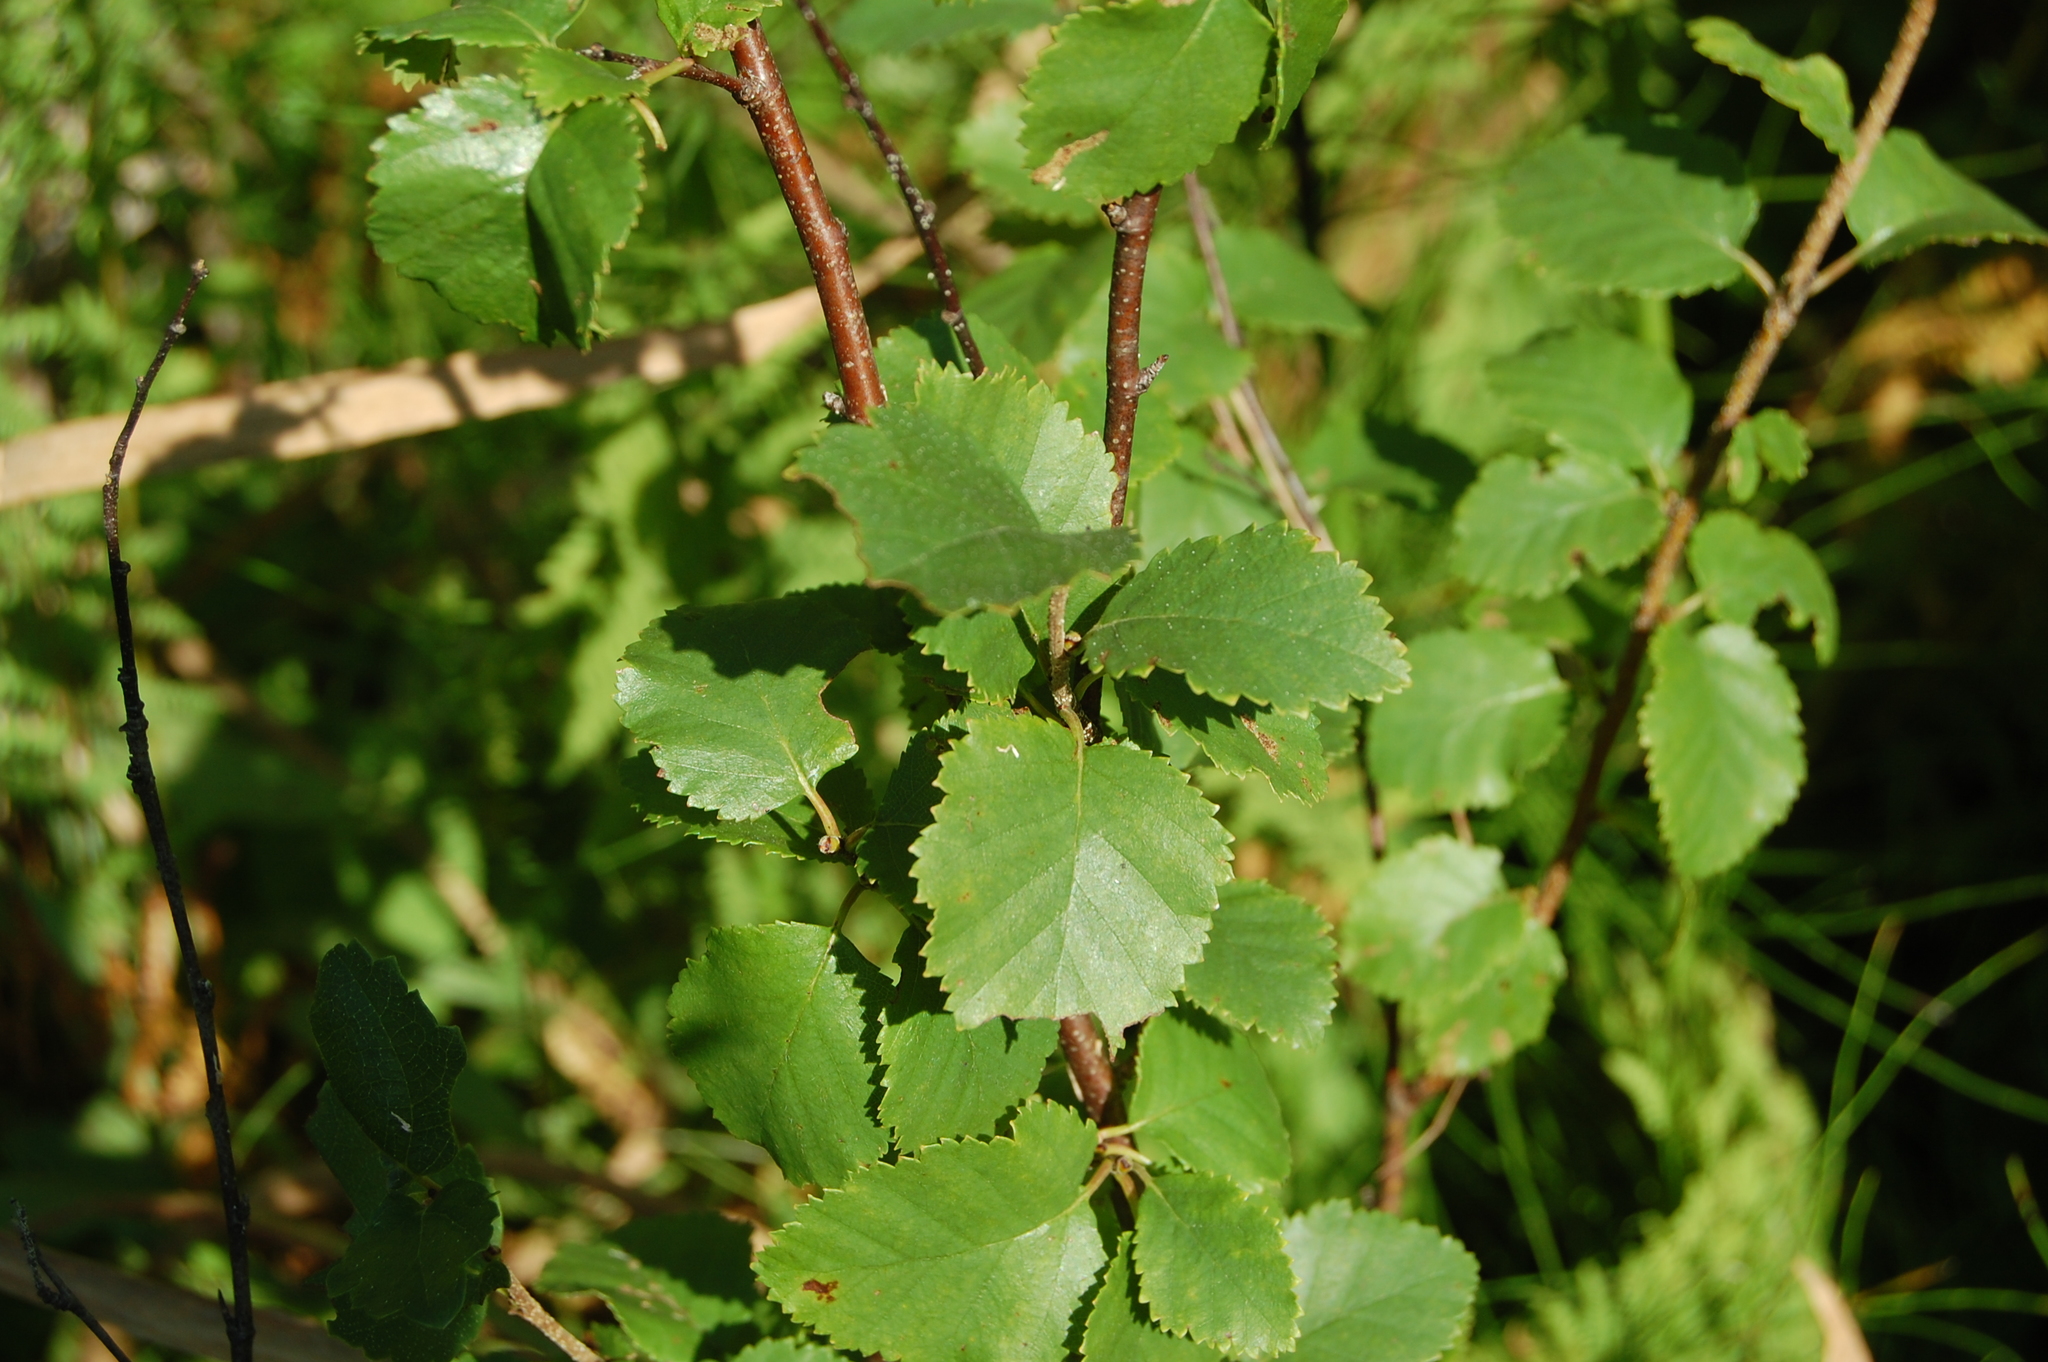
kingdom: Plantae
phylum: Tracheophyta
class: Magnoliopsida
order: Fagales
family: Betulaceae
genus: Betula
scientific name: Betula humilis
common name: Shrubby birch
